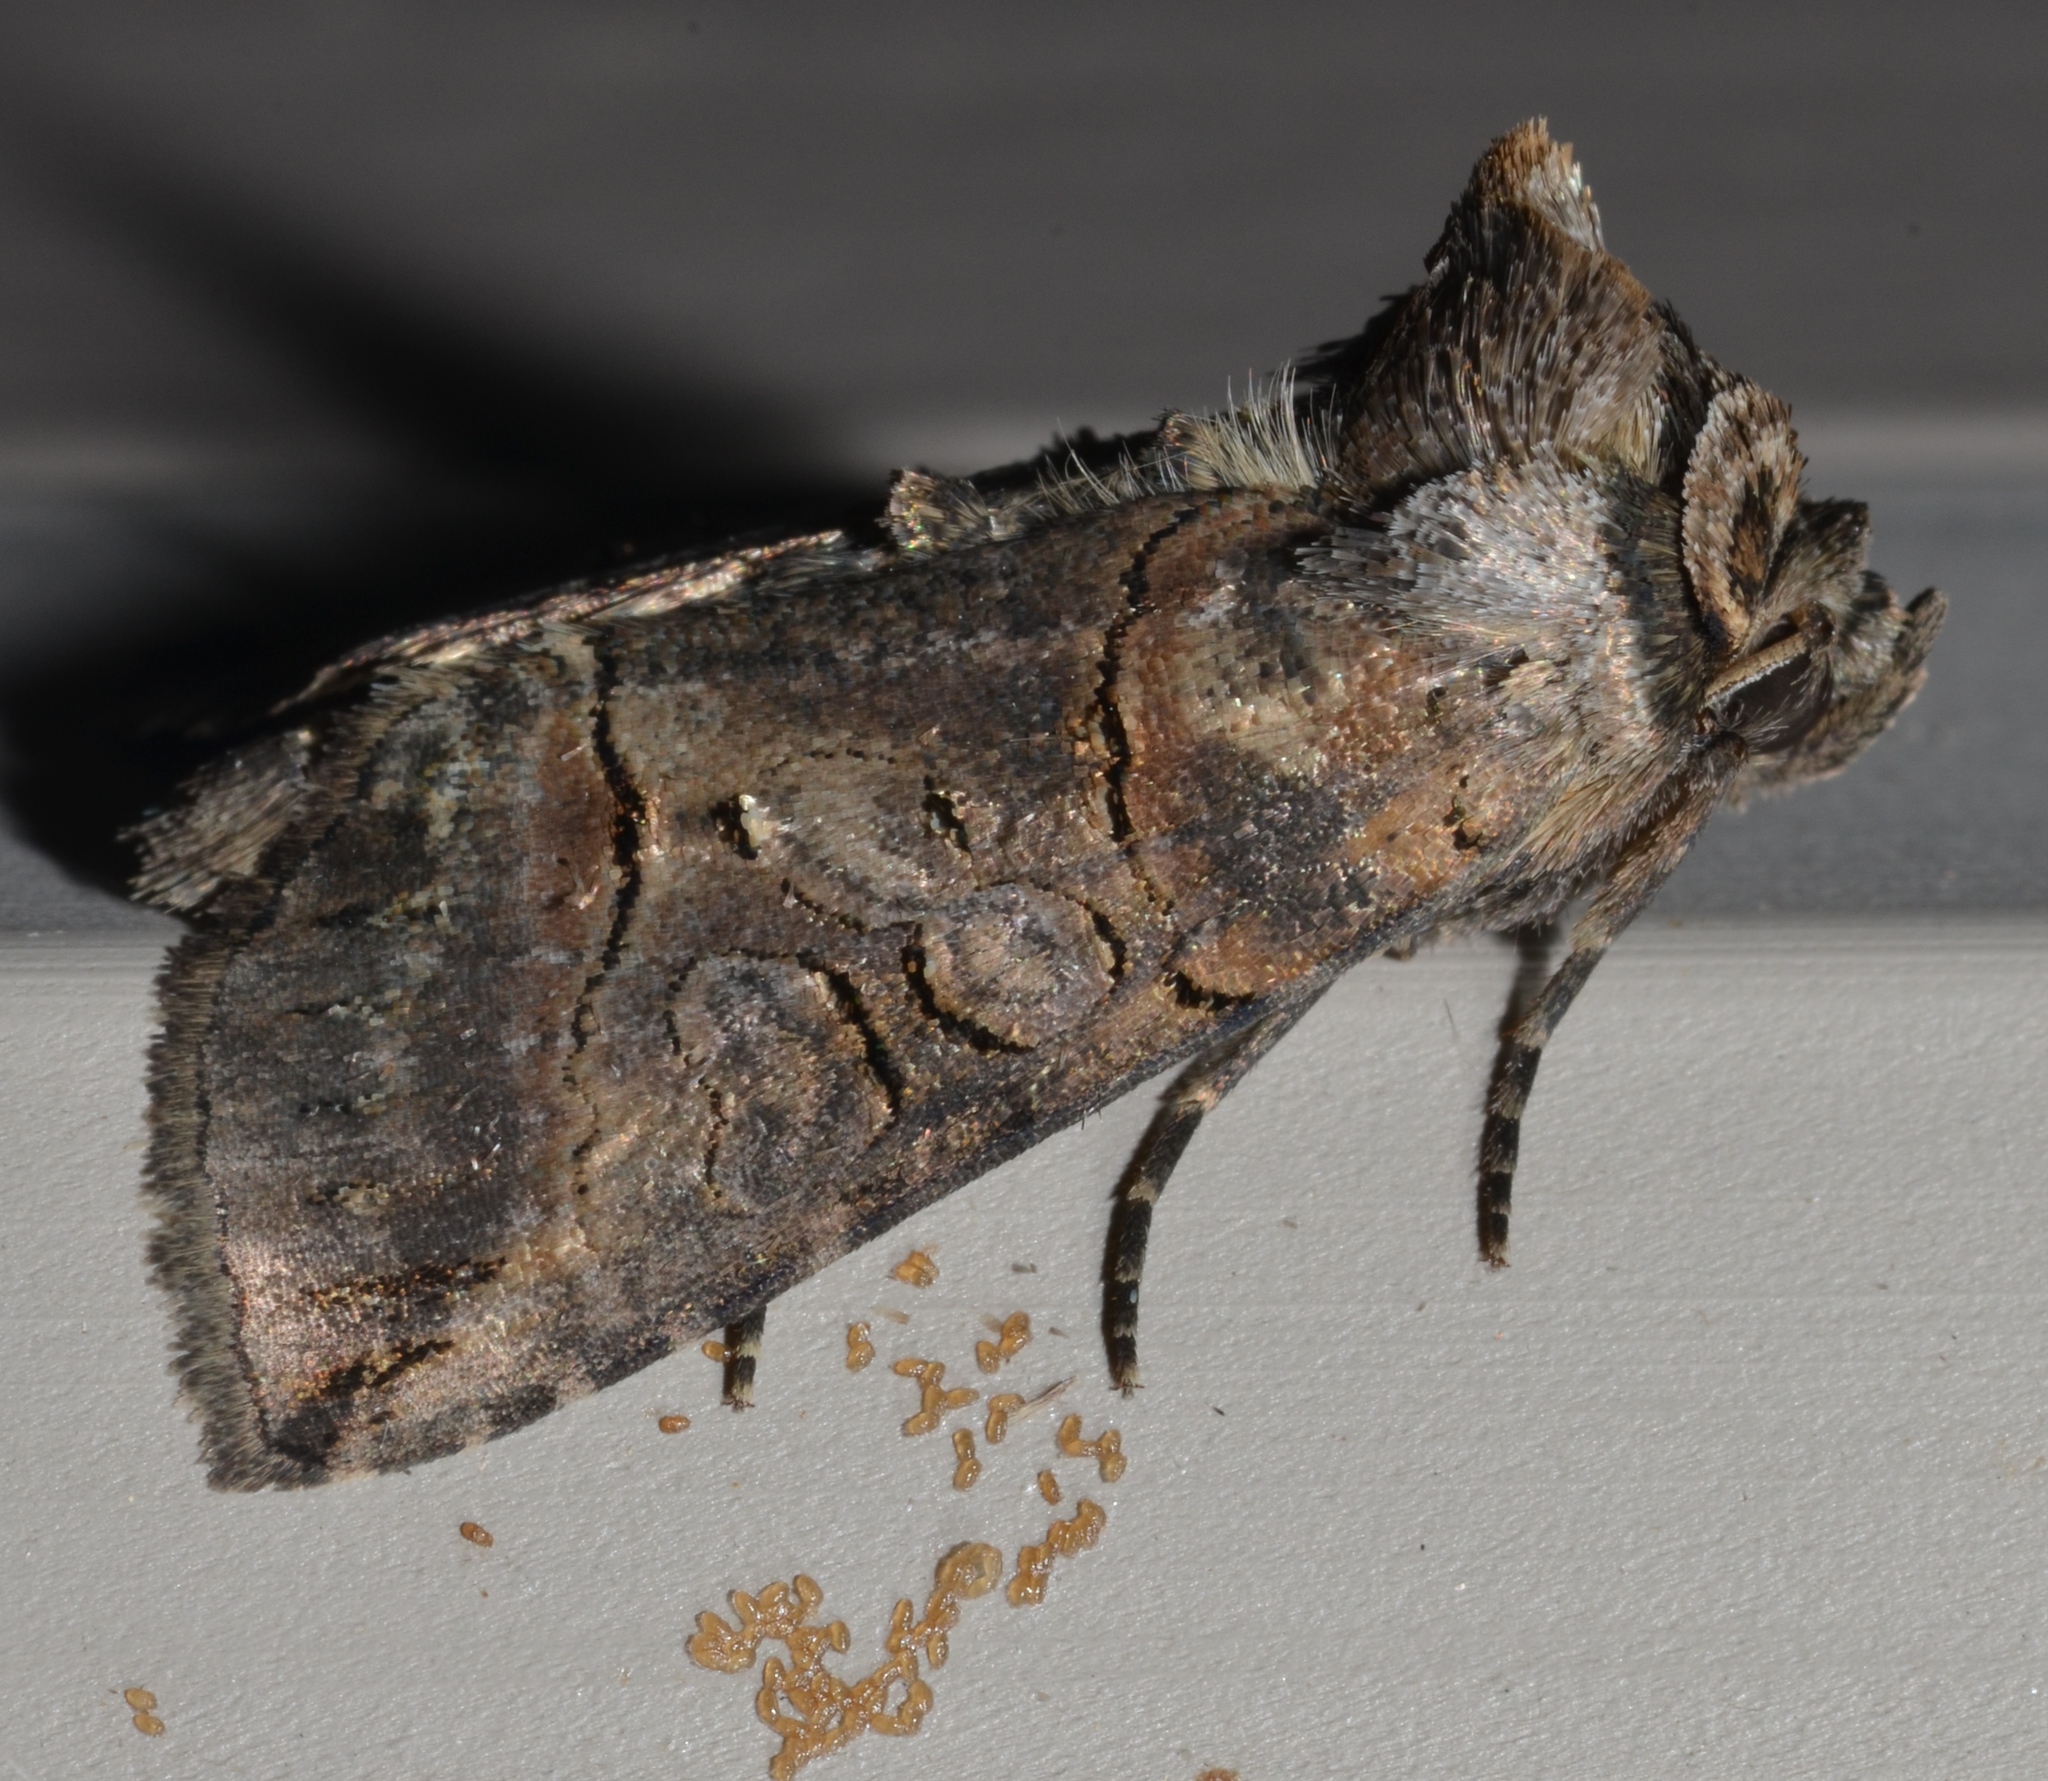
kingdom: Animalia
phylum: Arthropoda
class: Insecta
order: Lepidoptera
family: Noctuidae
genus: Abrostola
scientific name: Abrostola urentis
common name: Spectacled nettle moth
